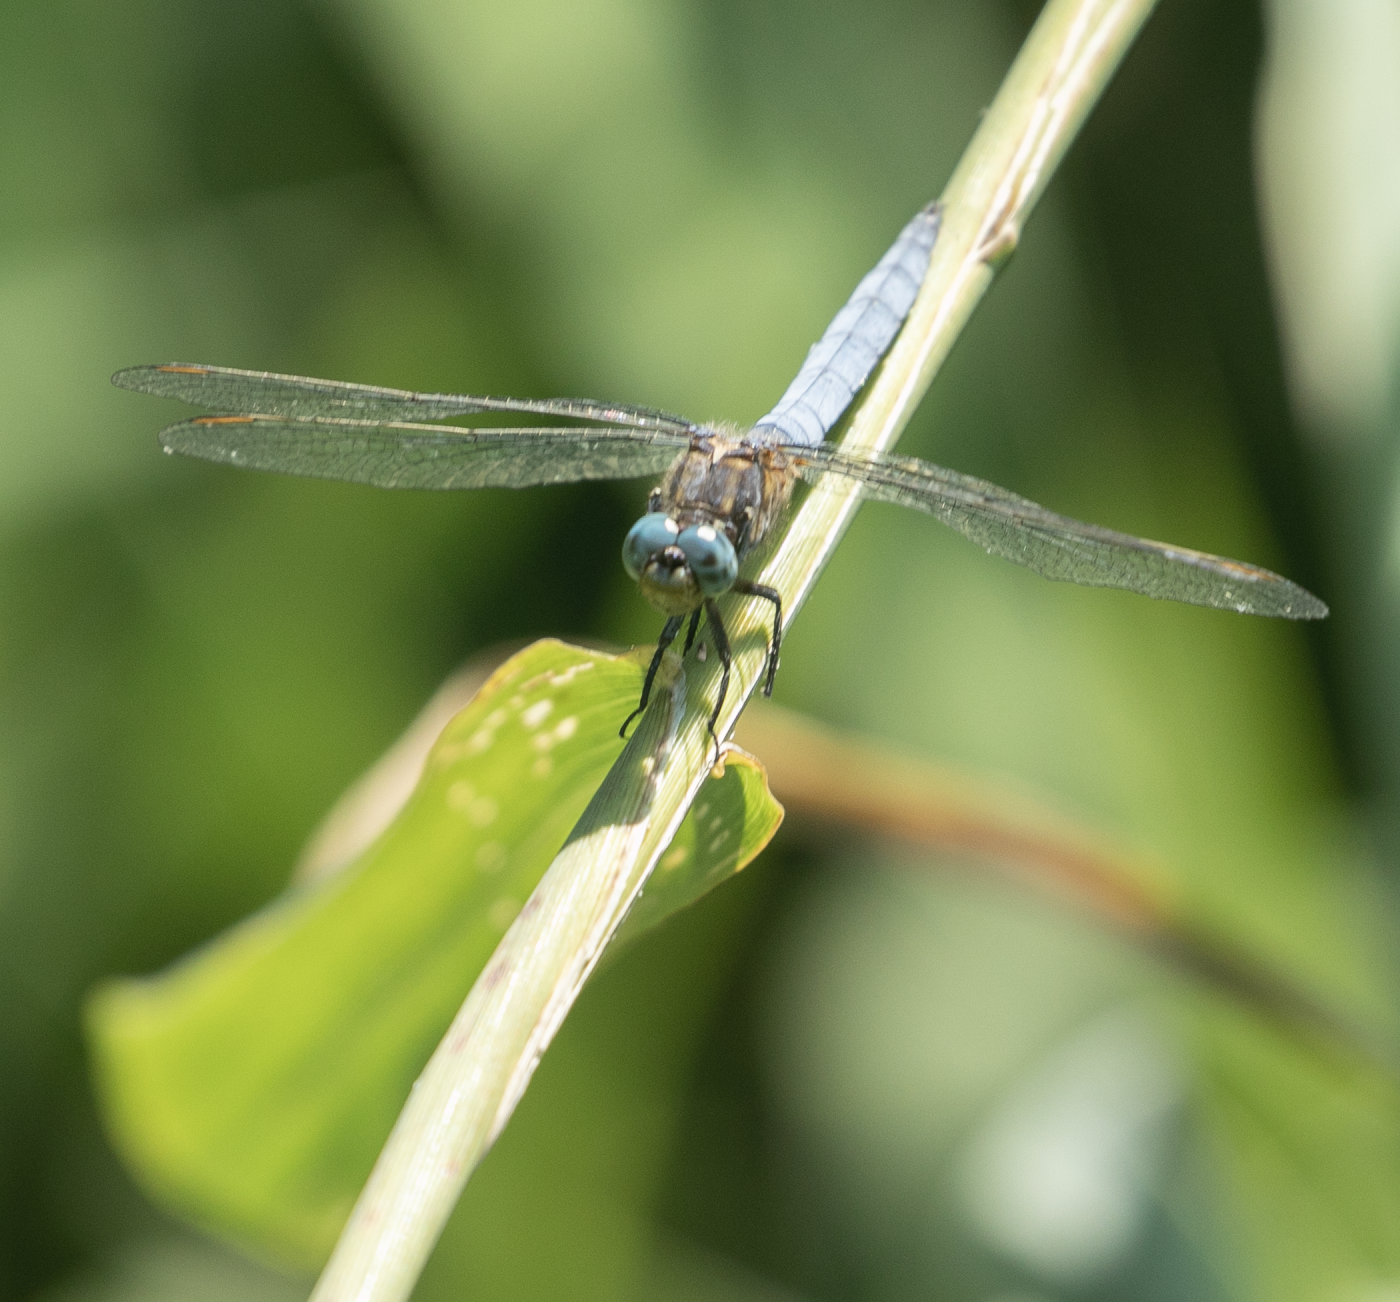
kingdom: Animalia
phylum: Arthropoda
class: Insecta
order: Odonata
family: Libellulidae
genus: Orthetrum
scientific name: Orthetrum coerulescens
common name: Keeled skimmer
